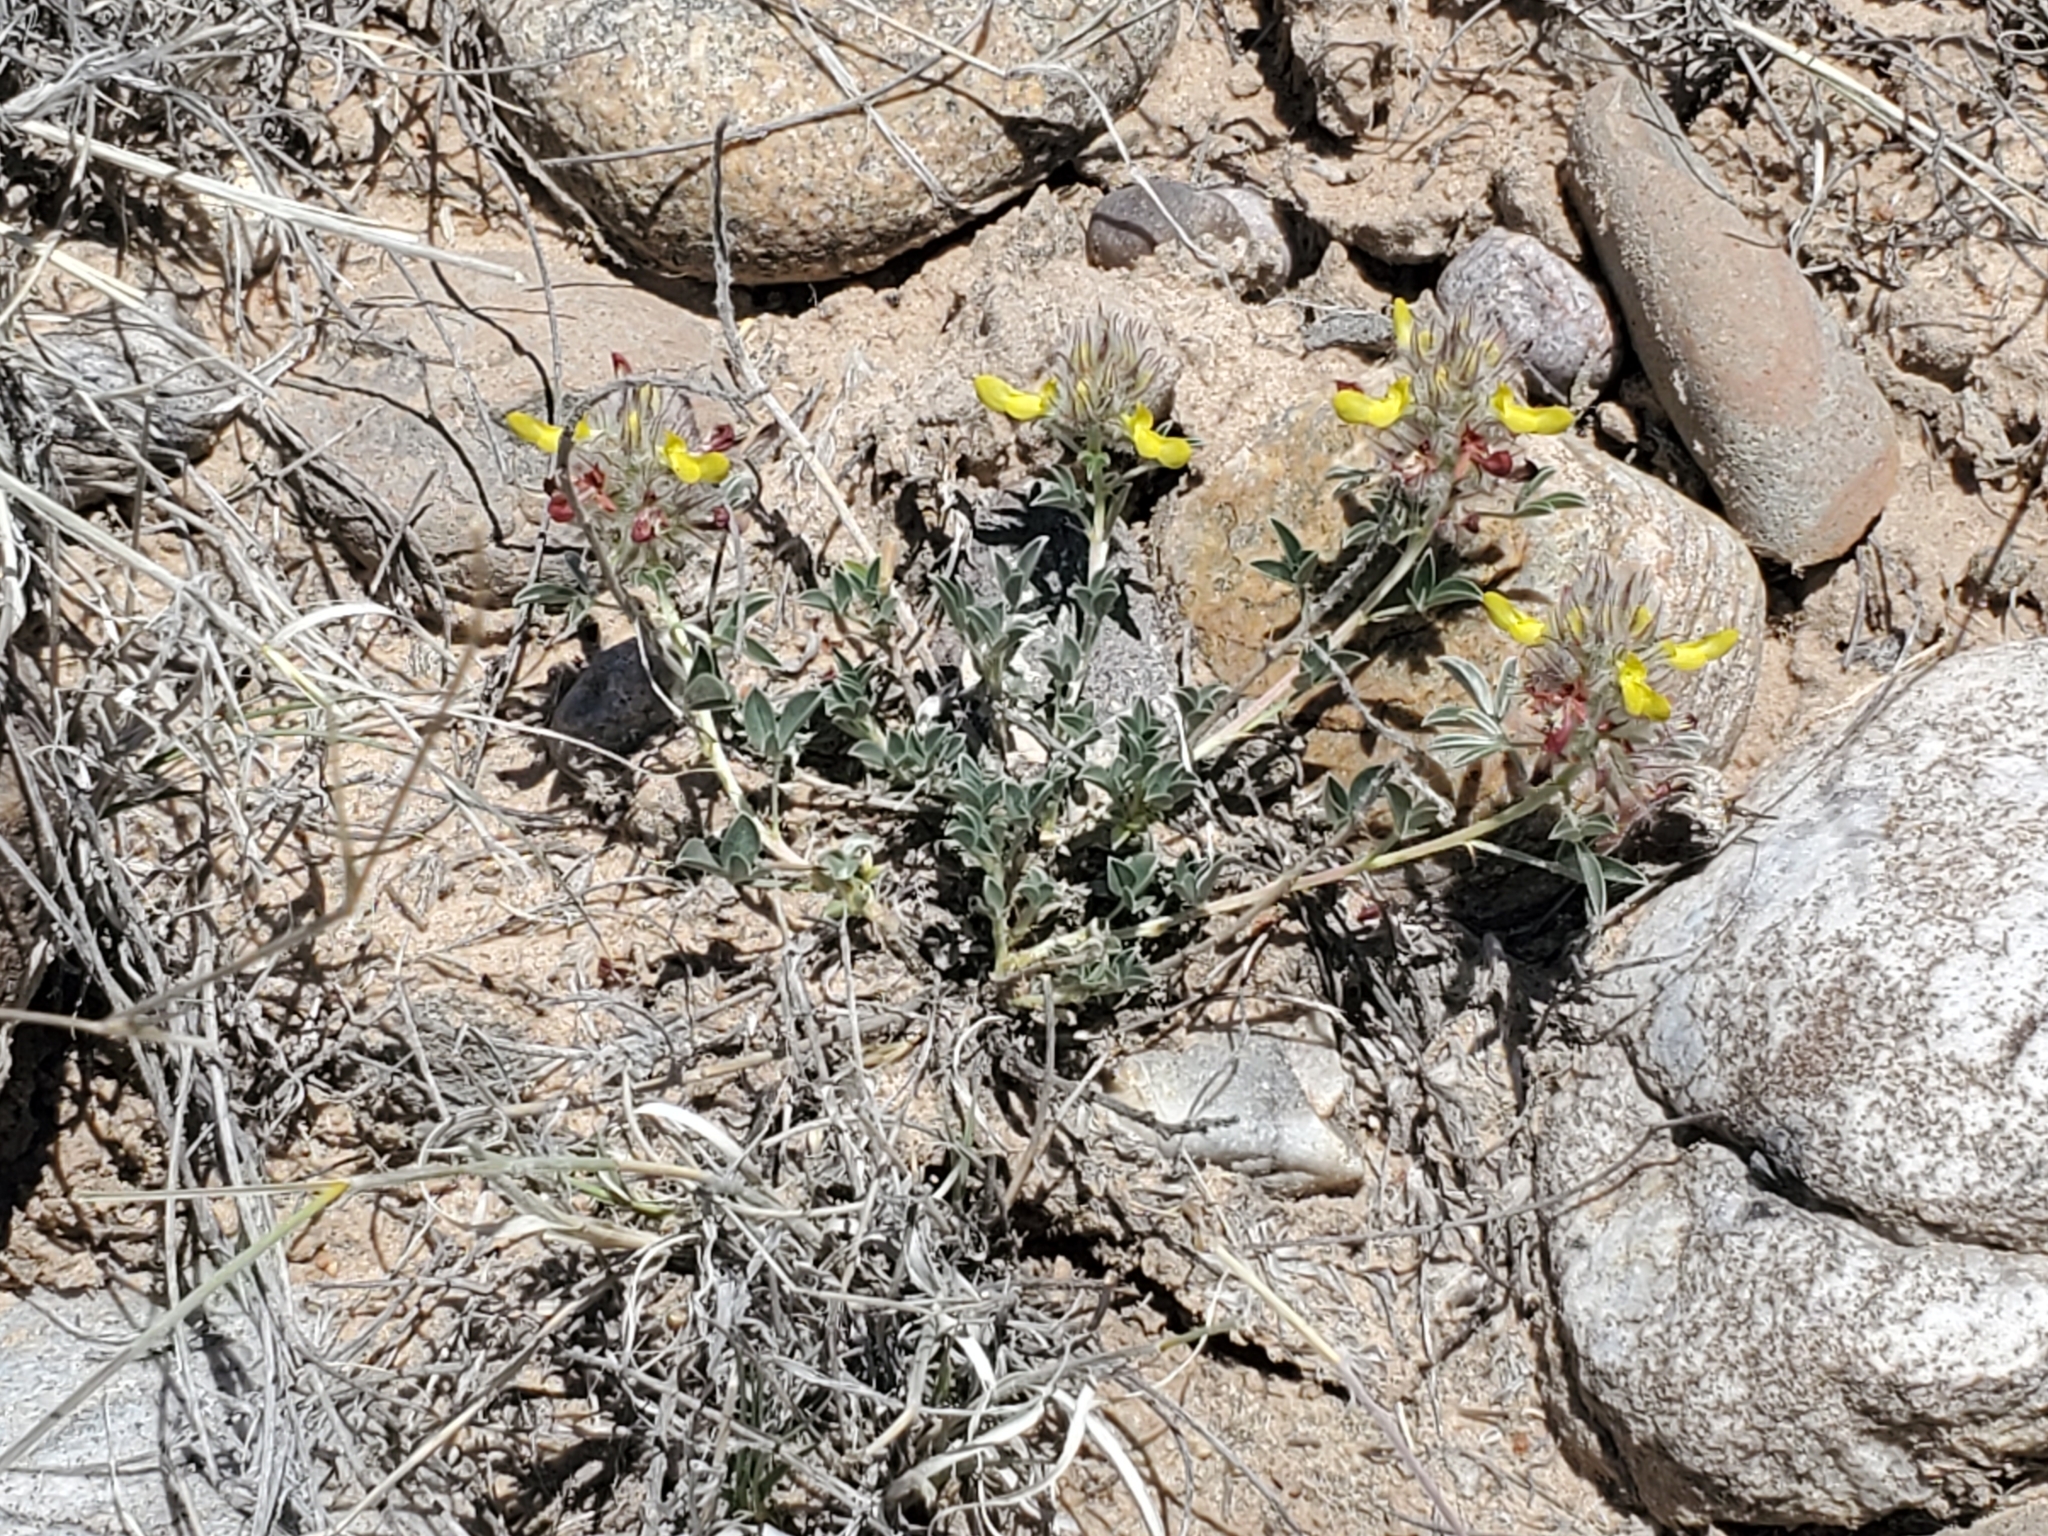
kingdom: Plantae
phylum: Tracheophyta
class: Magnoliopsida
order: Fabales
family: Fabaceae
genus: Dalea
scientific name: Dalea jamesii
